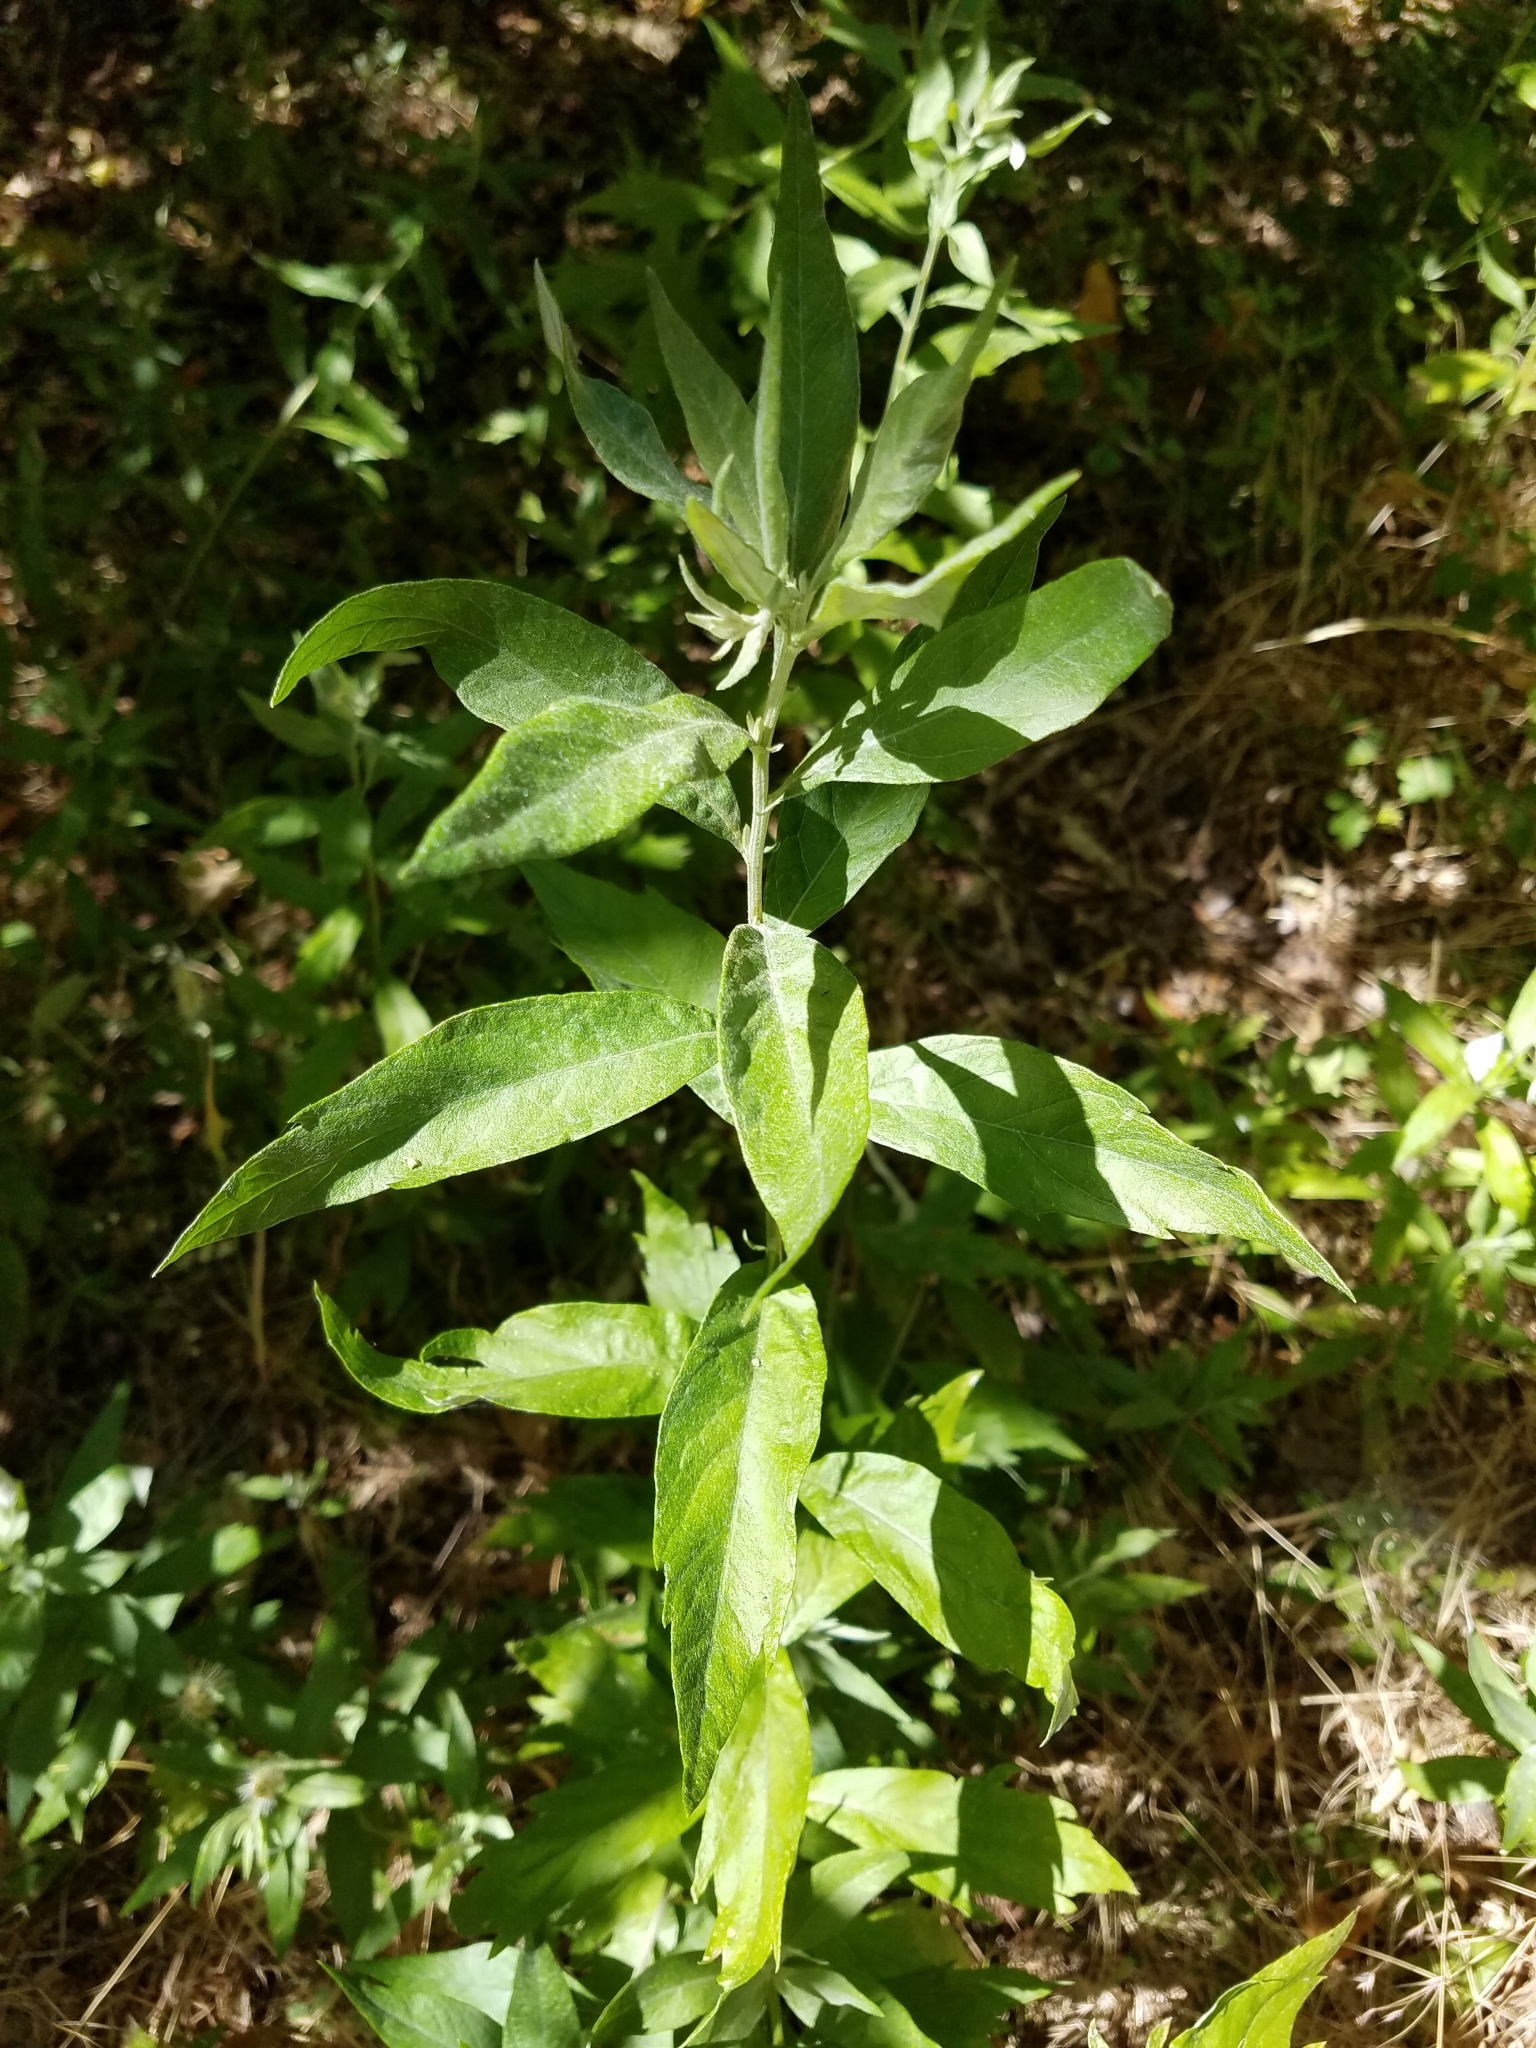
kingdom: Plantae
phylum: Tracheophyta
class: Magnoliopsida
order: Asterales
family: Asteraceae
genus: Artemisia
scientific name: Artemisia douglasiana
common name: Northwest mugwort
